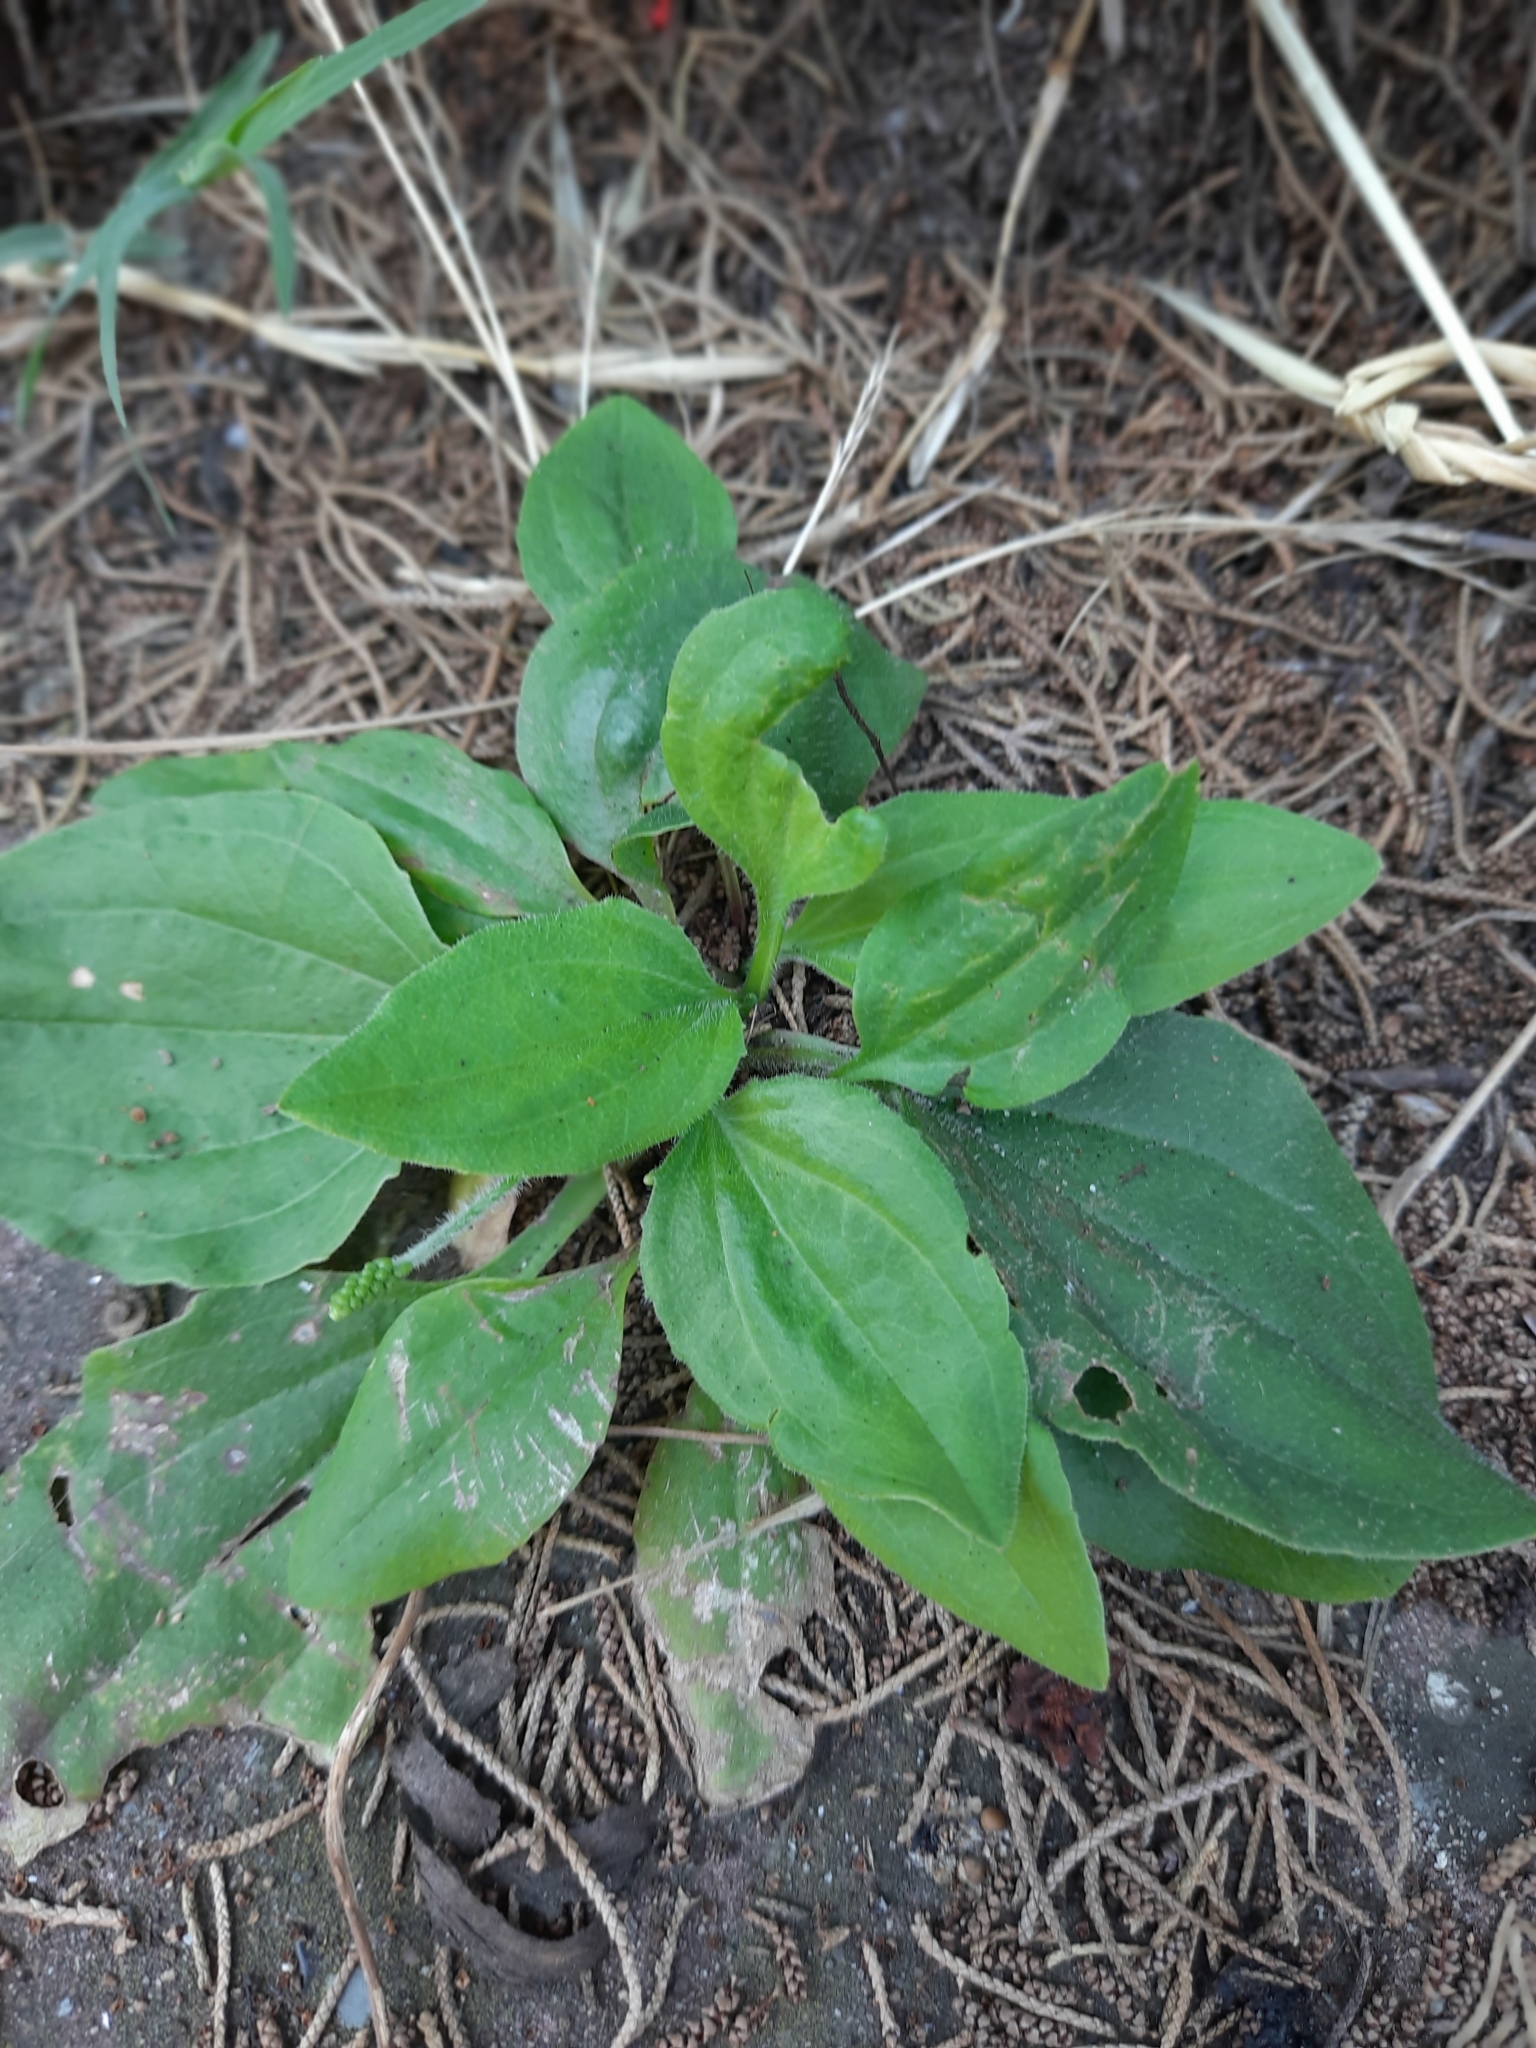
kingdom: Plantae
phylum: Tracheophyta
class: Magnoliopsida
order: Lamiales
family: Plantaginaceae
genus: Plantago
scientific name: Plantago major
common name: Common plantain
